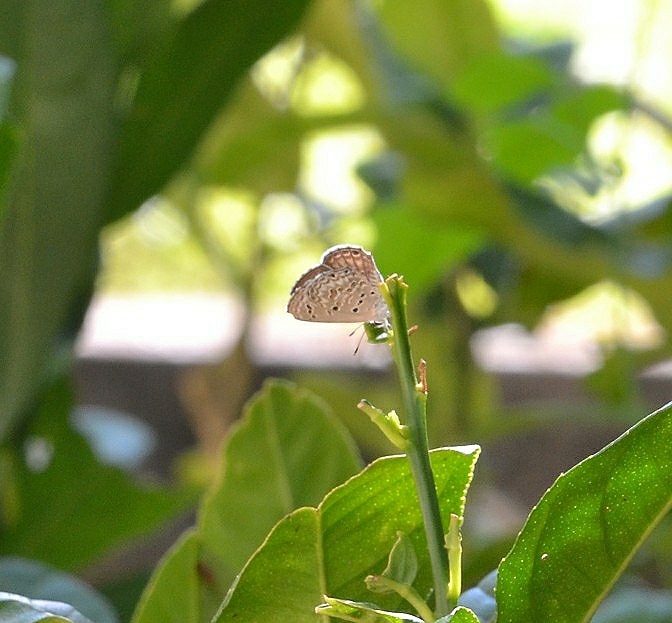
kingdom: Animalia
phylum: Arthropoda
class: Insecta
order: Lepidoptera
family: Lycaenidae
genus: Chilades
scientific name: Chilades laius
